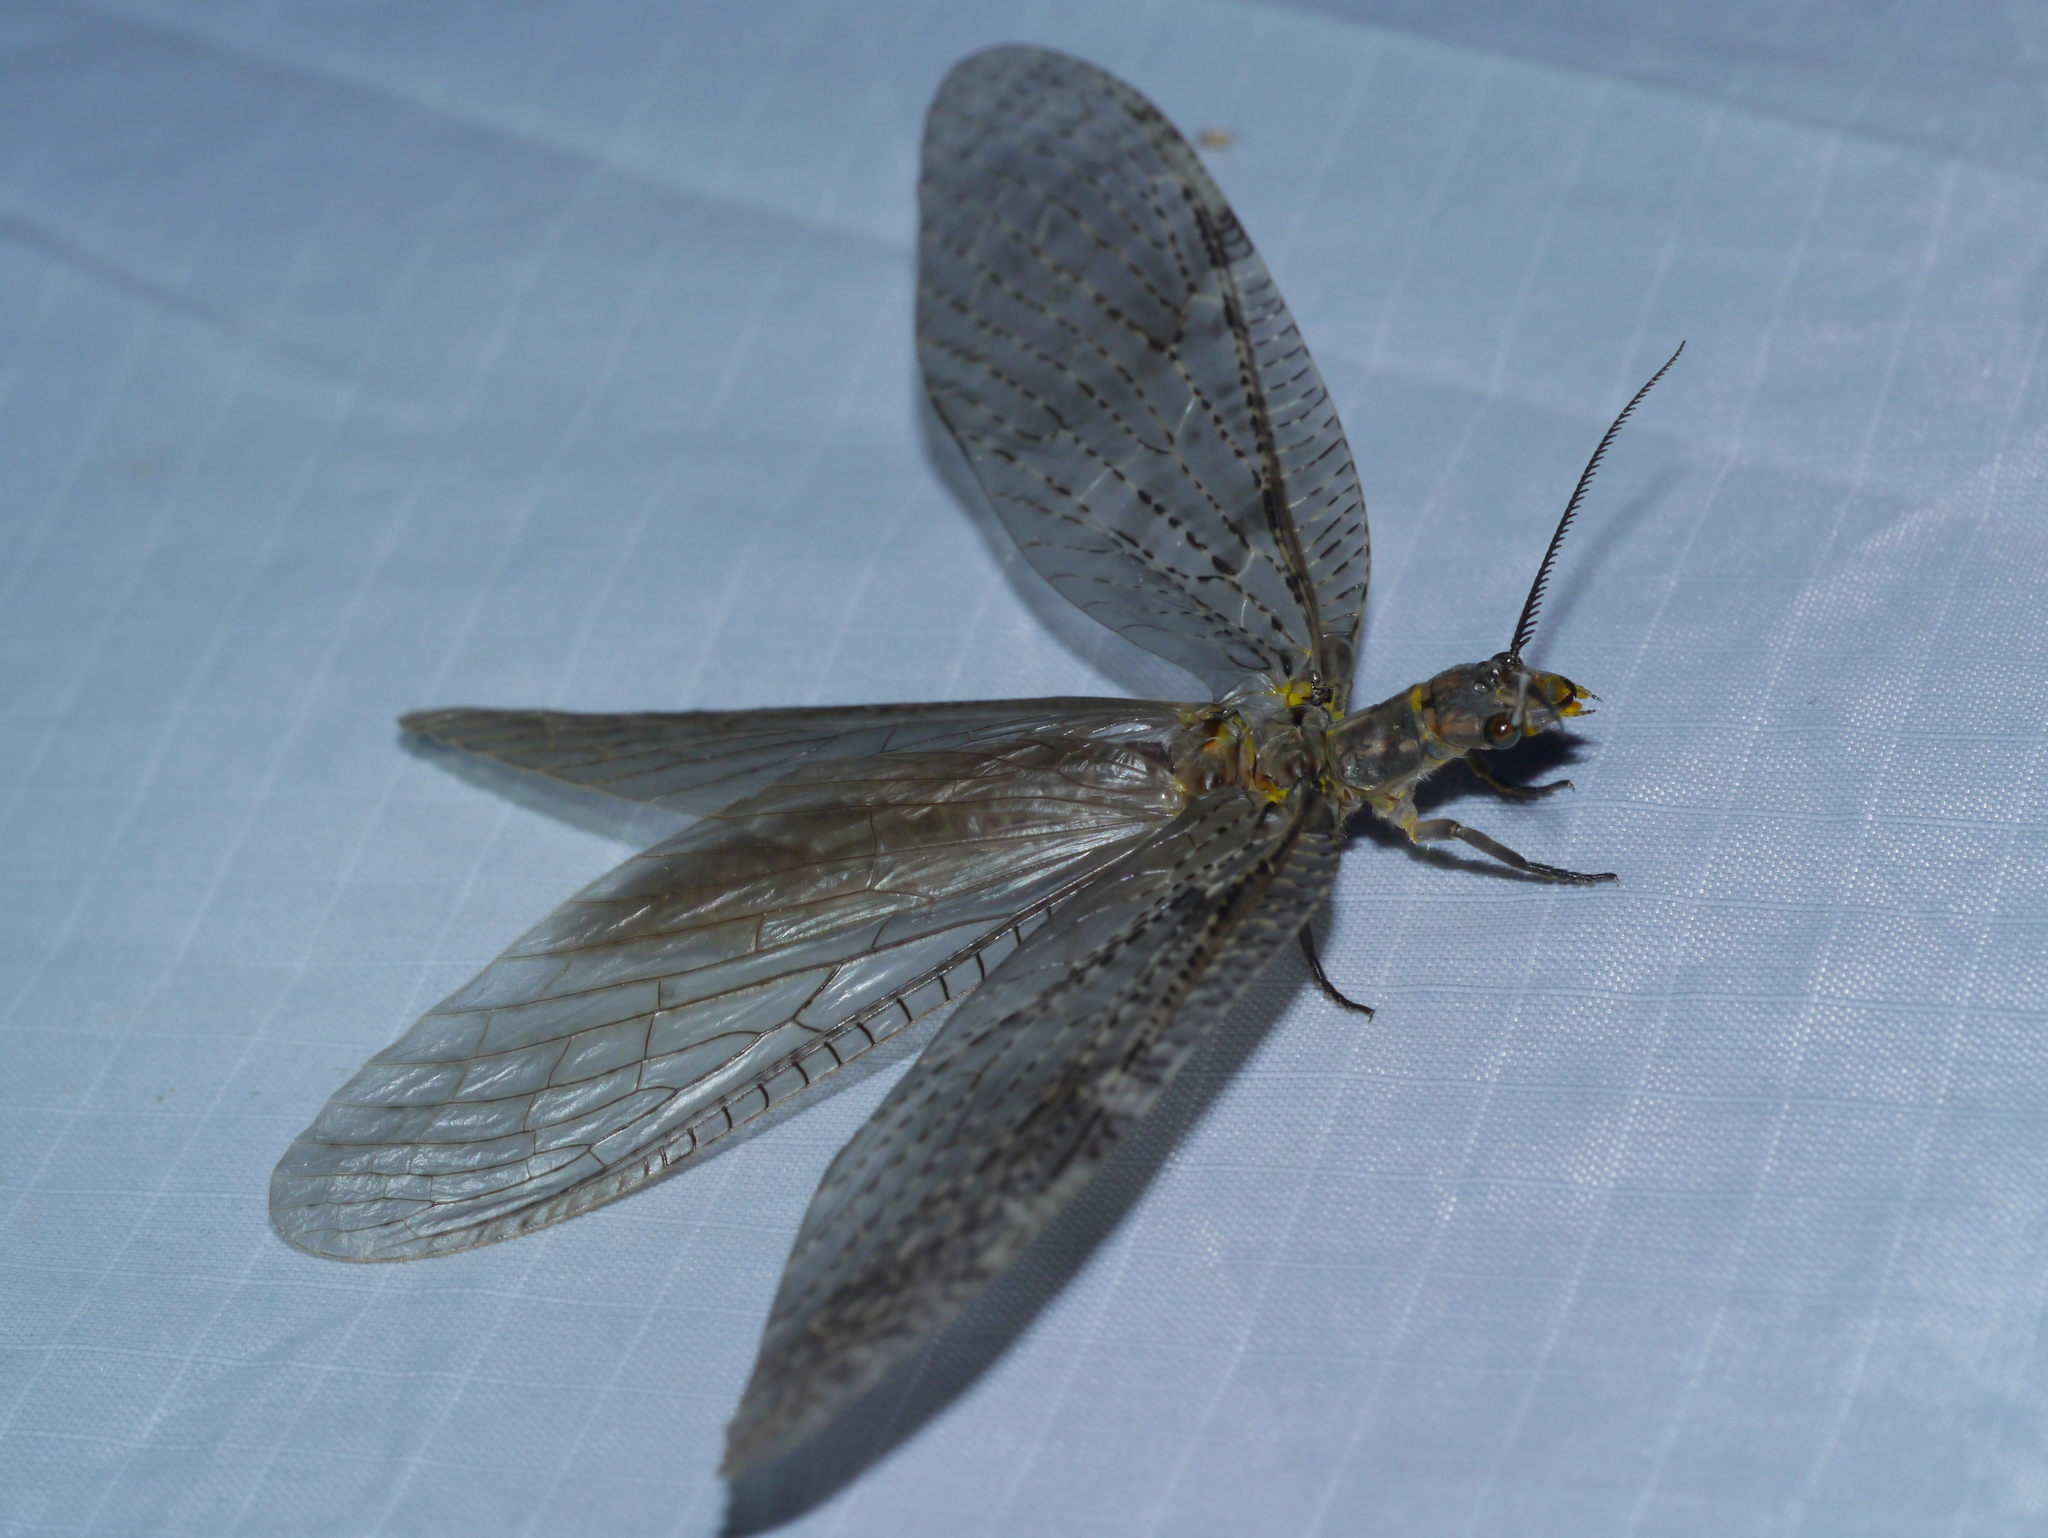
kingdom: Animalia
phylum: Arthropoda
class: Insecta
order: Megaloptera
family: Corydalidae
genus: Chauliodes
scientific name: Chauliodes pectinicornis
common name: Summer fishfly
